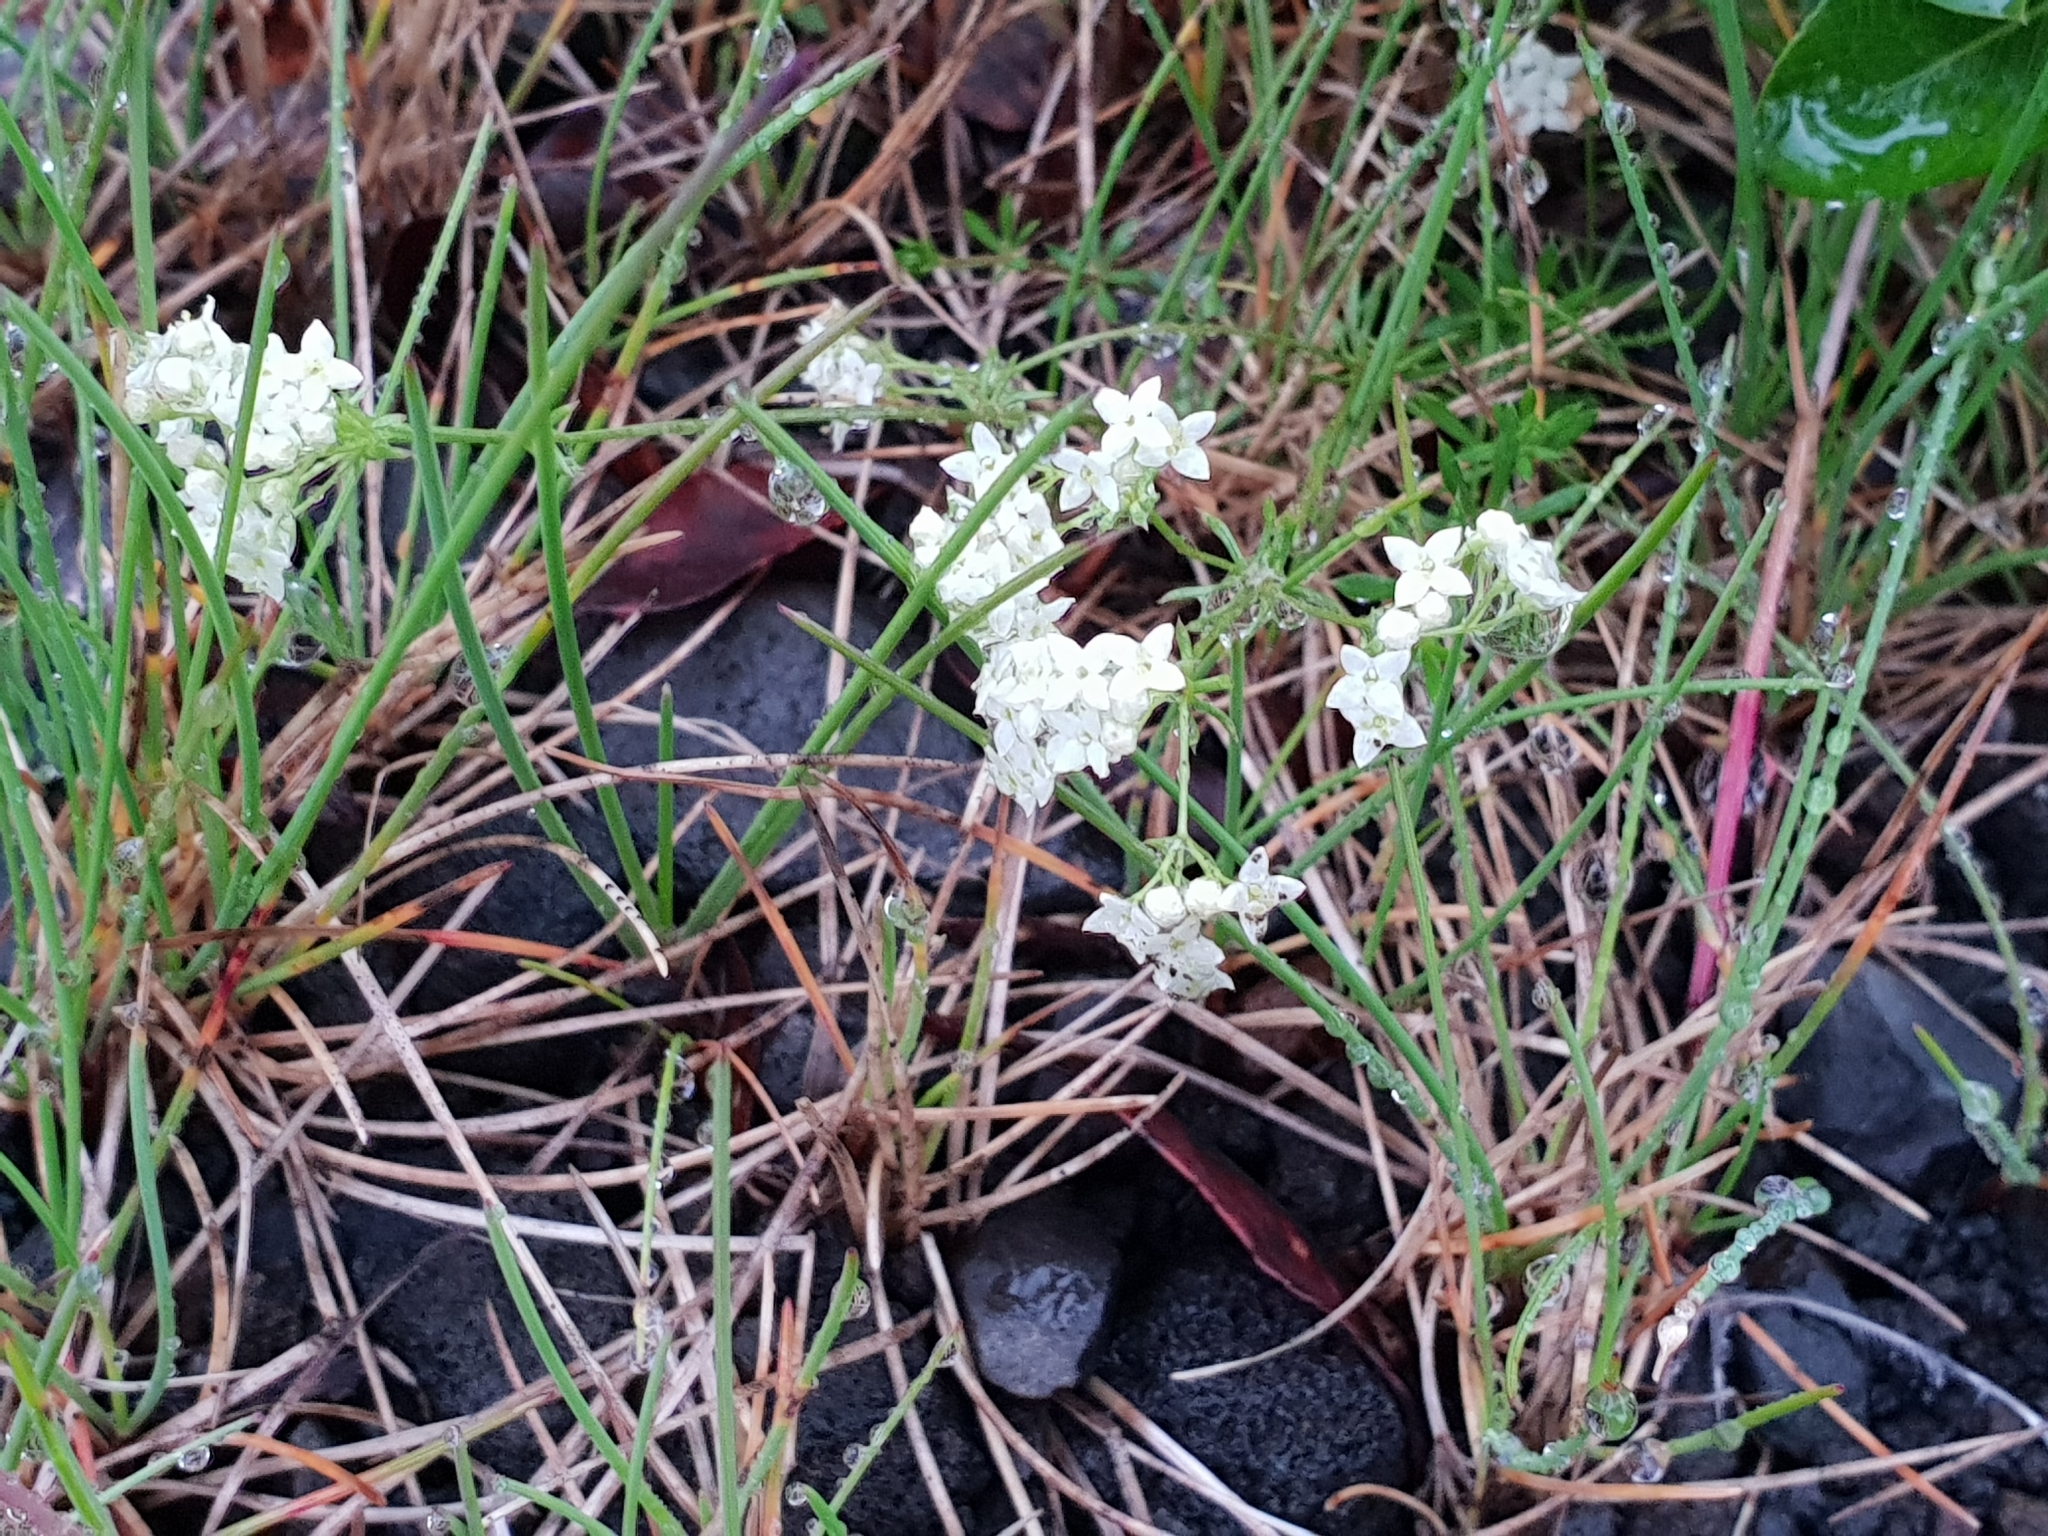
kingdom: Plantae
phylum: Tracheophyta
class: Magnoliopsida
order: Gentianales
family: Rubiaceae
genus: Galium
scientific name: Galium normanii
